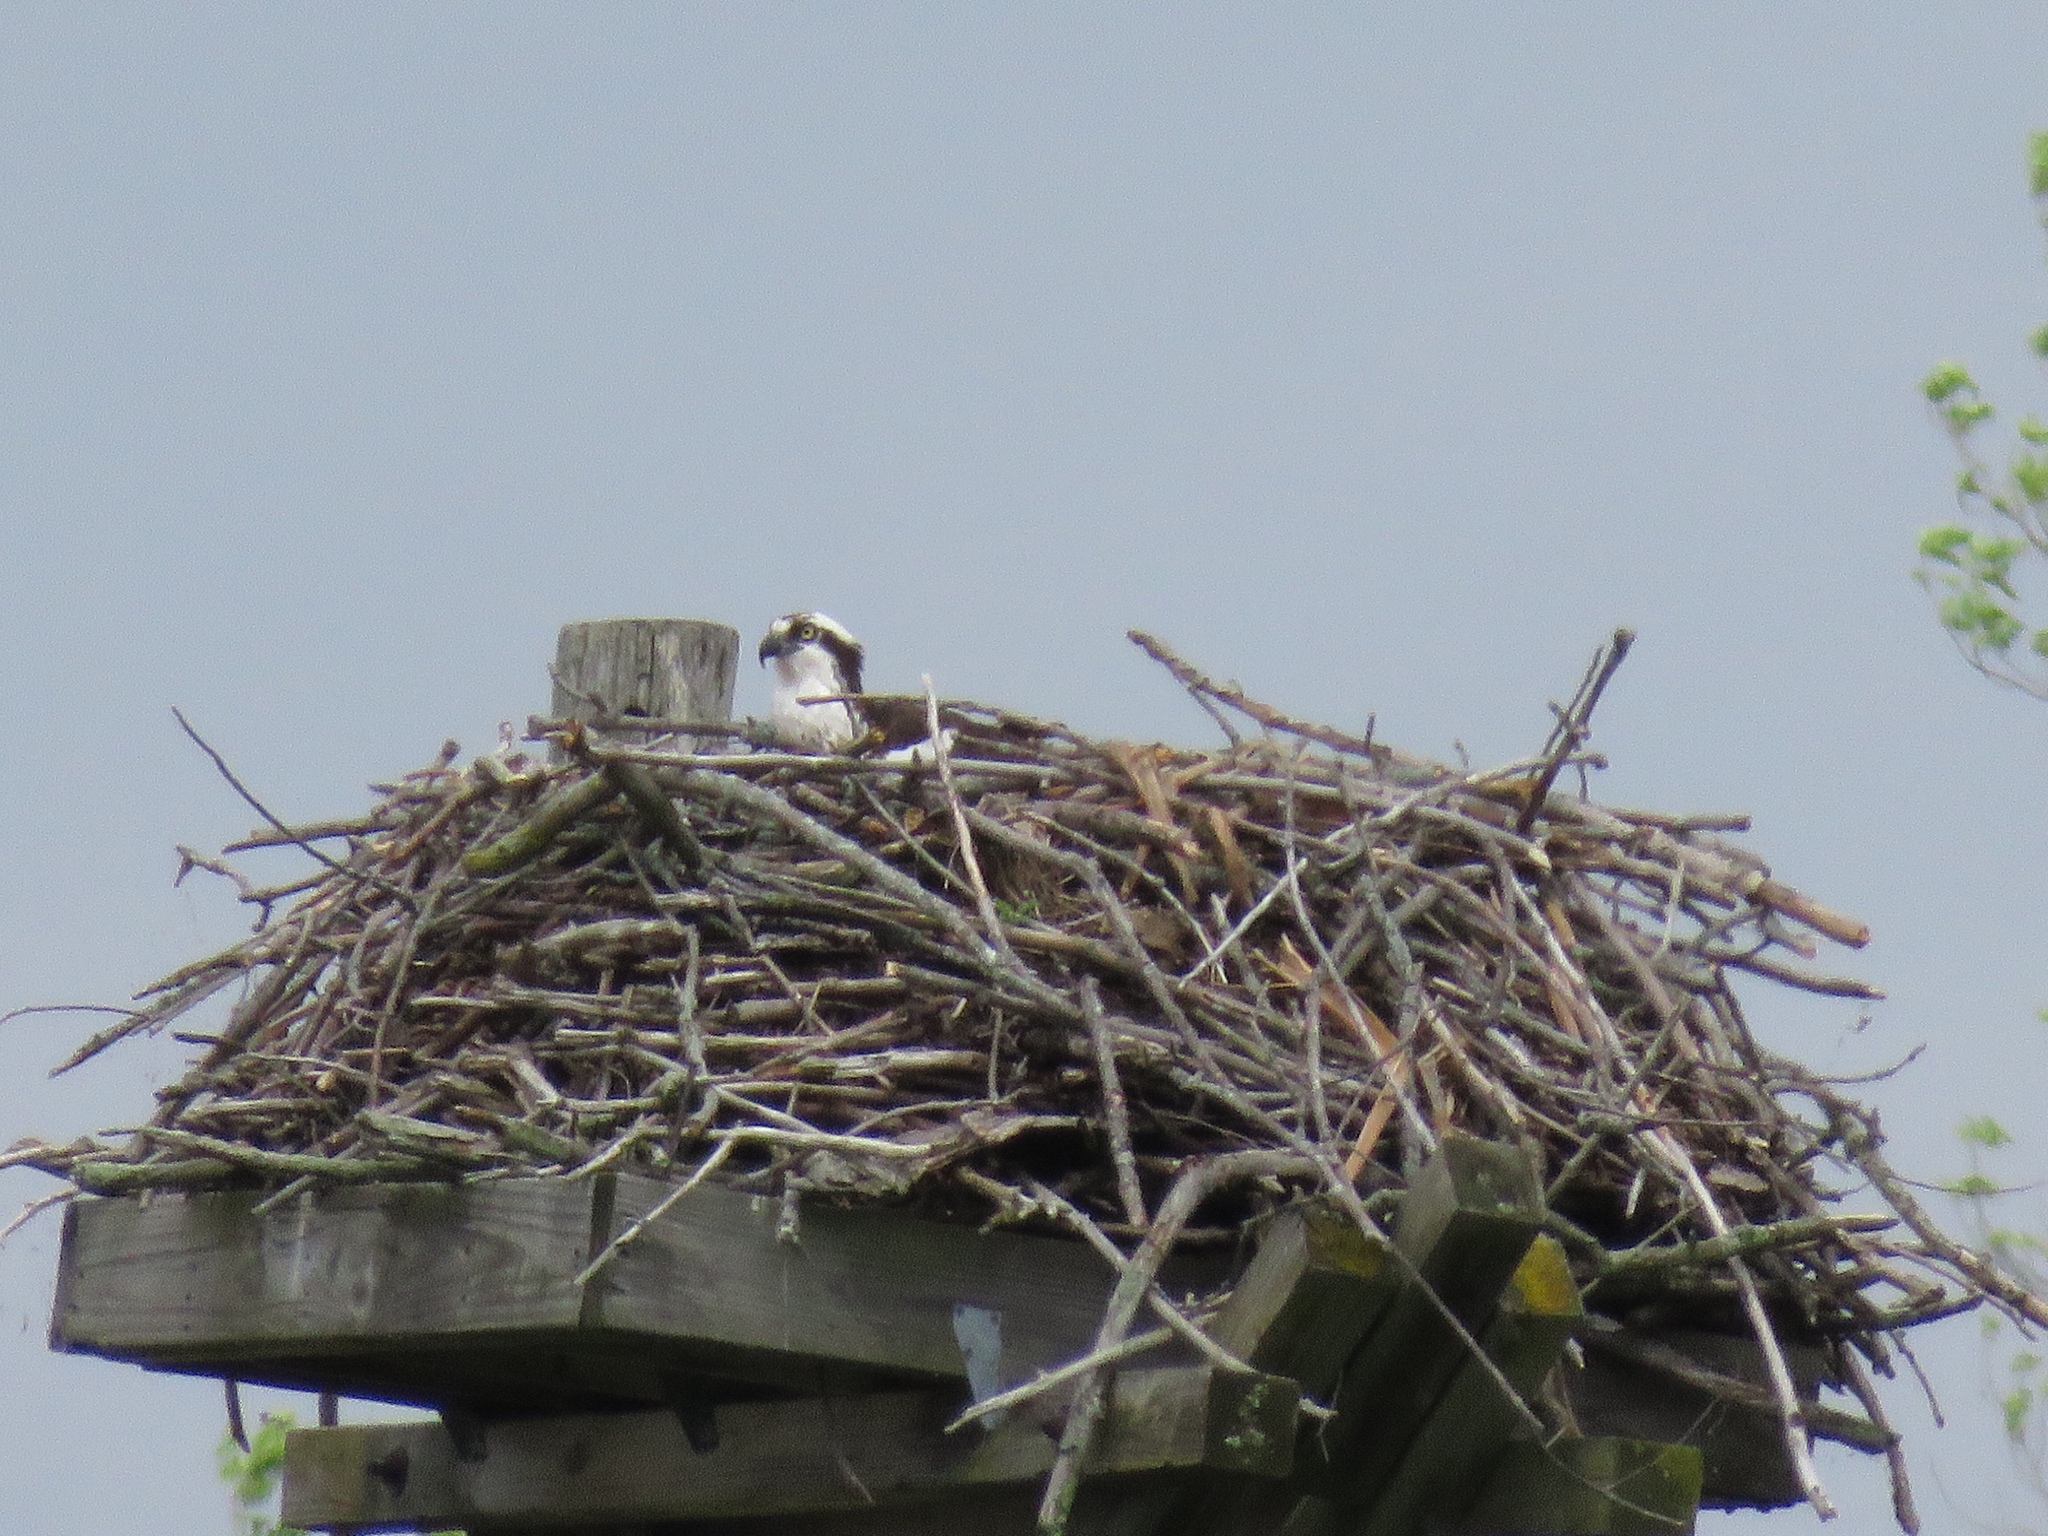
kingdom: Animalia
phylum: Chordata
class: Aves
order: Accipitriformes
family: Pandionidae
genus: Pandion
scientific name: Pandion haliaetus
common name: Osprey
